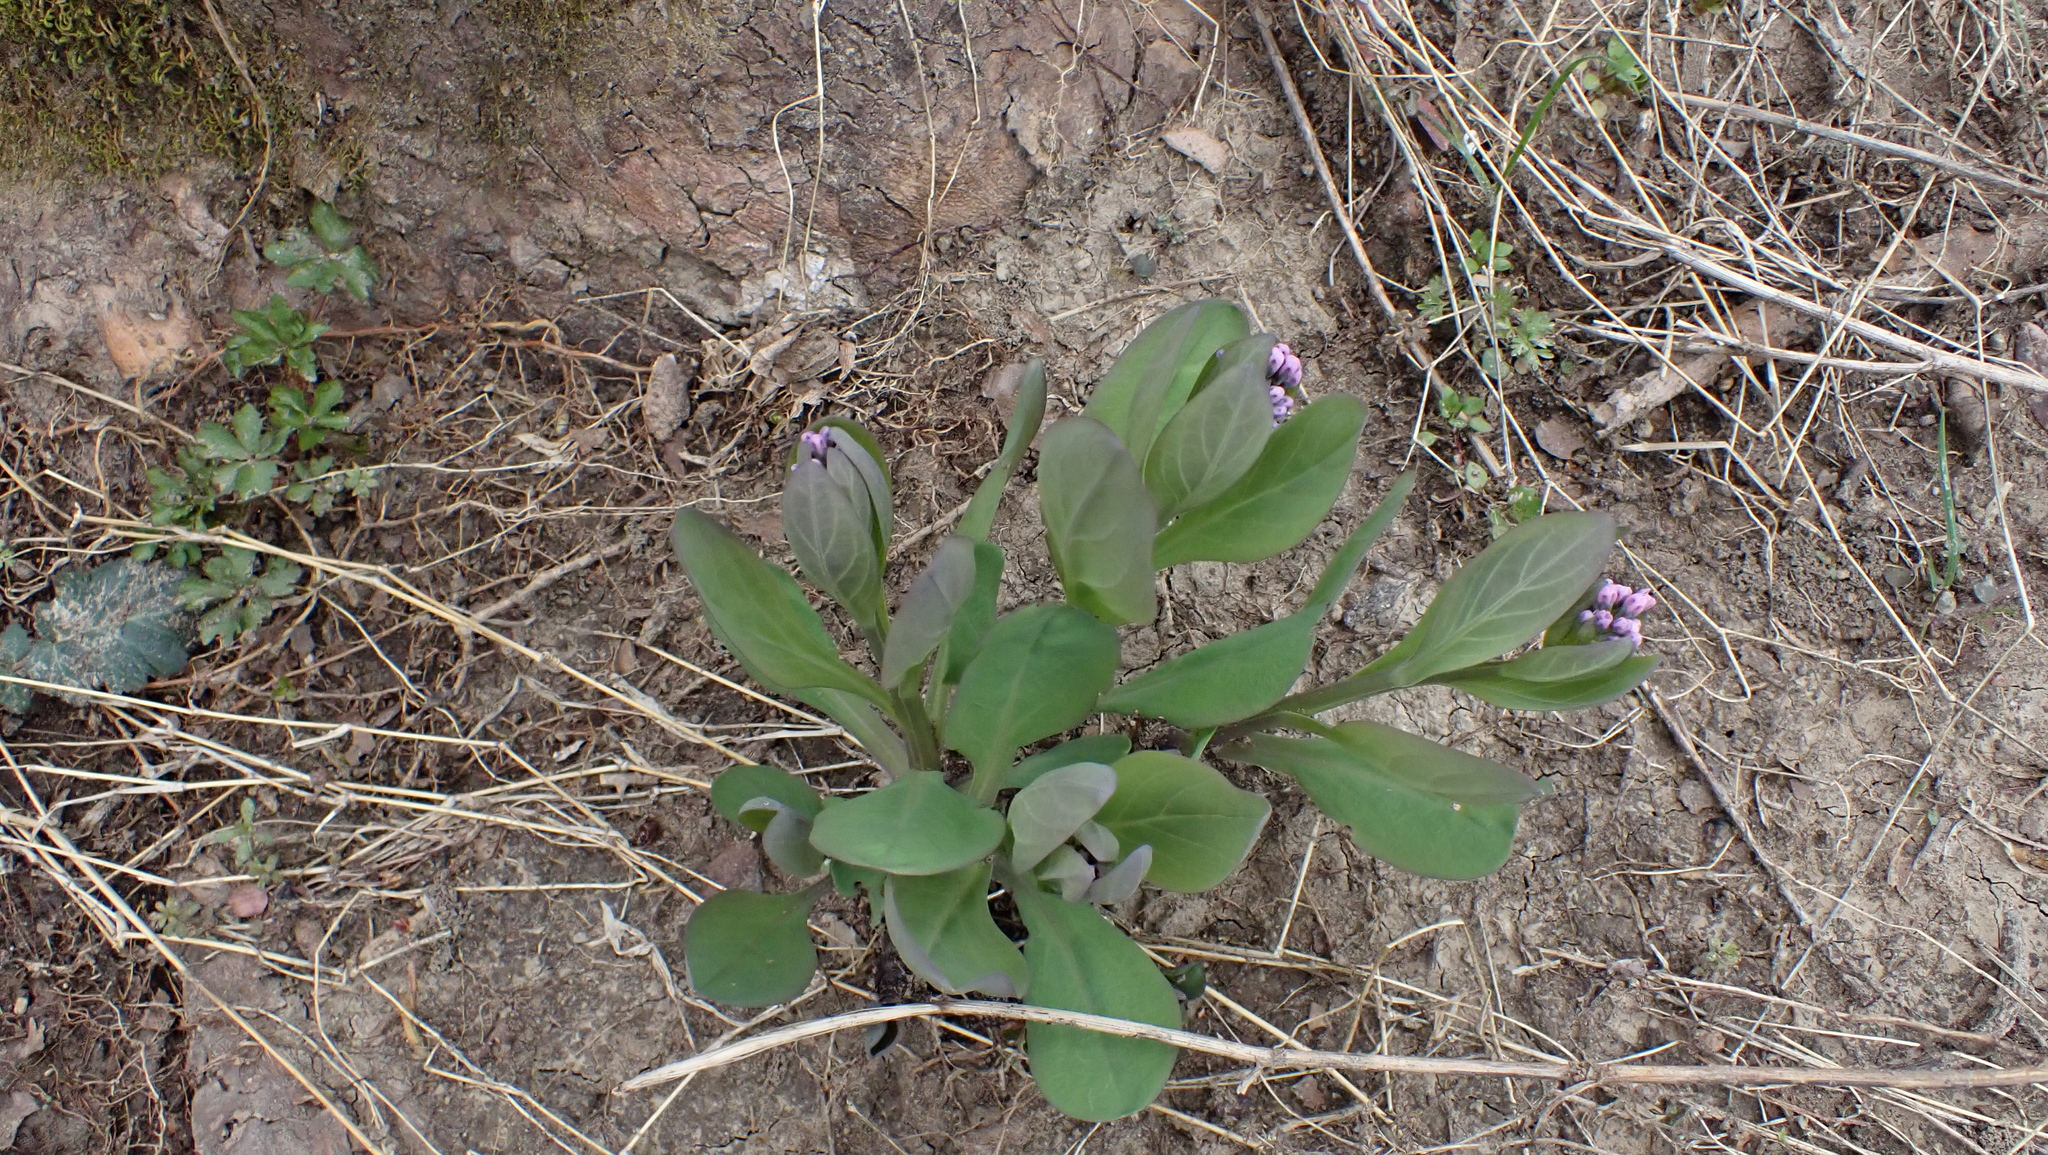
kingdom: Plantae
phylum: Tracheophyta
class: Magnoliopsida
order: Boraginales
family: Boraginaceae
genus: Mertensia
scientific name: Mertensia virginica
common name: Virginia bluebells
